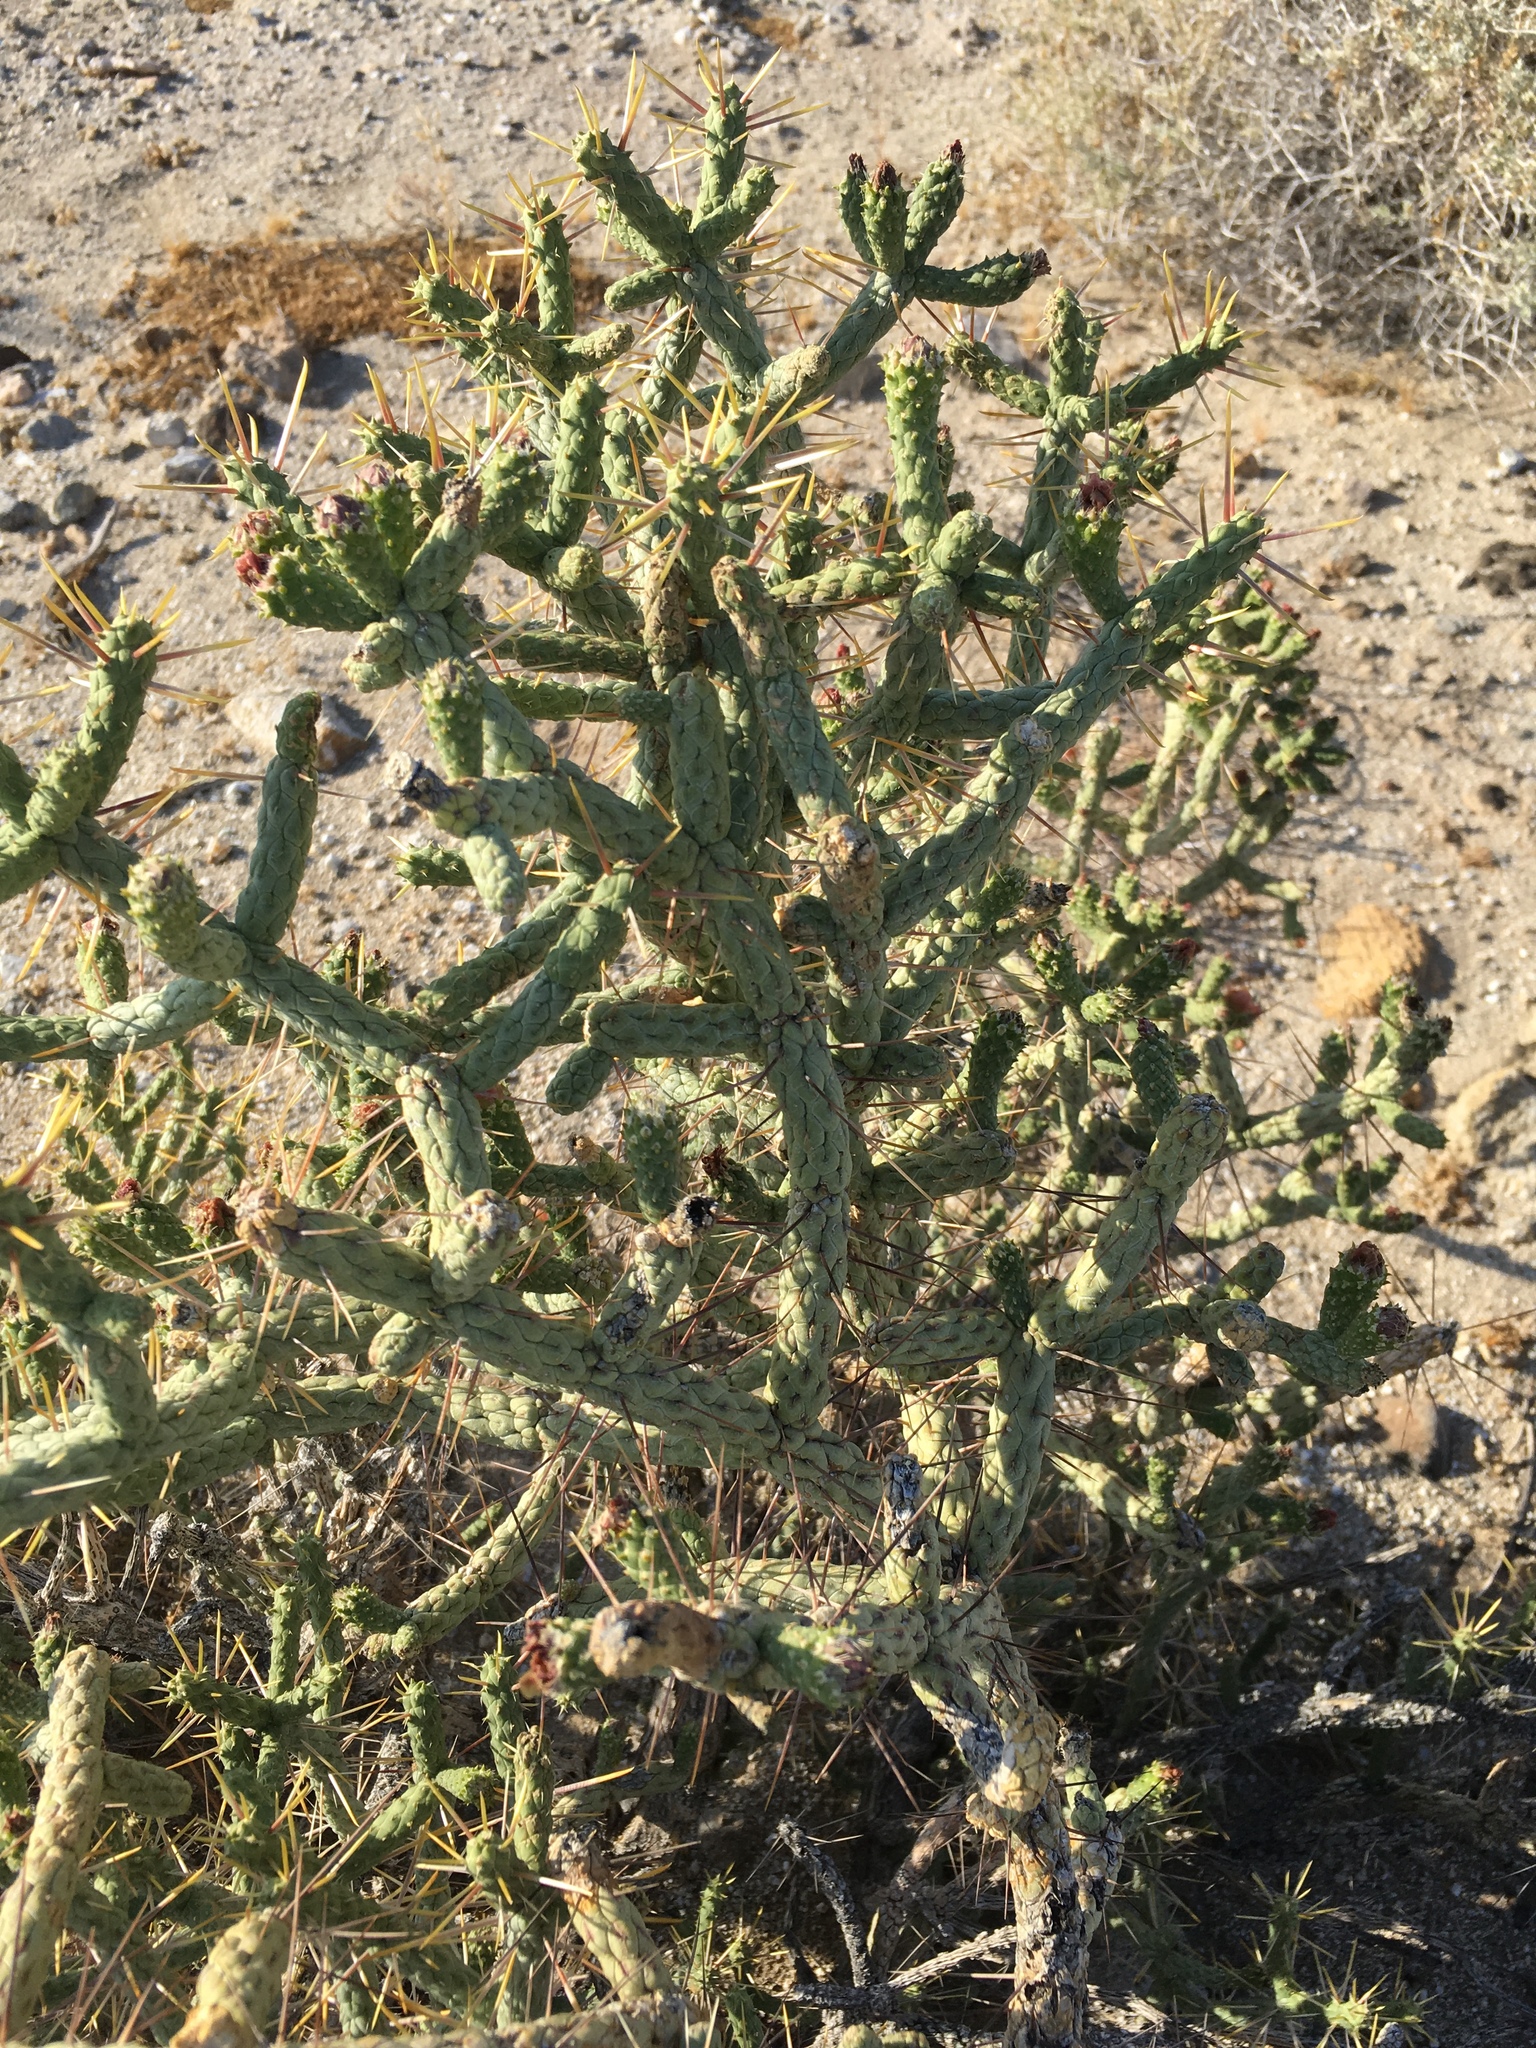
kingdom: Plantae
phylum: Tracheophyta
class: Magnoliopsida
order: Caryophyllales
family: Cactaceae
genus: Cylindropuntia
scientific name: Cylindropuntia ramosissima
